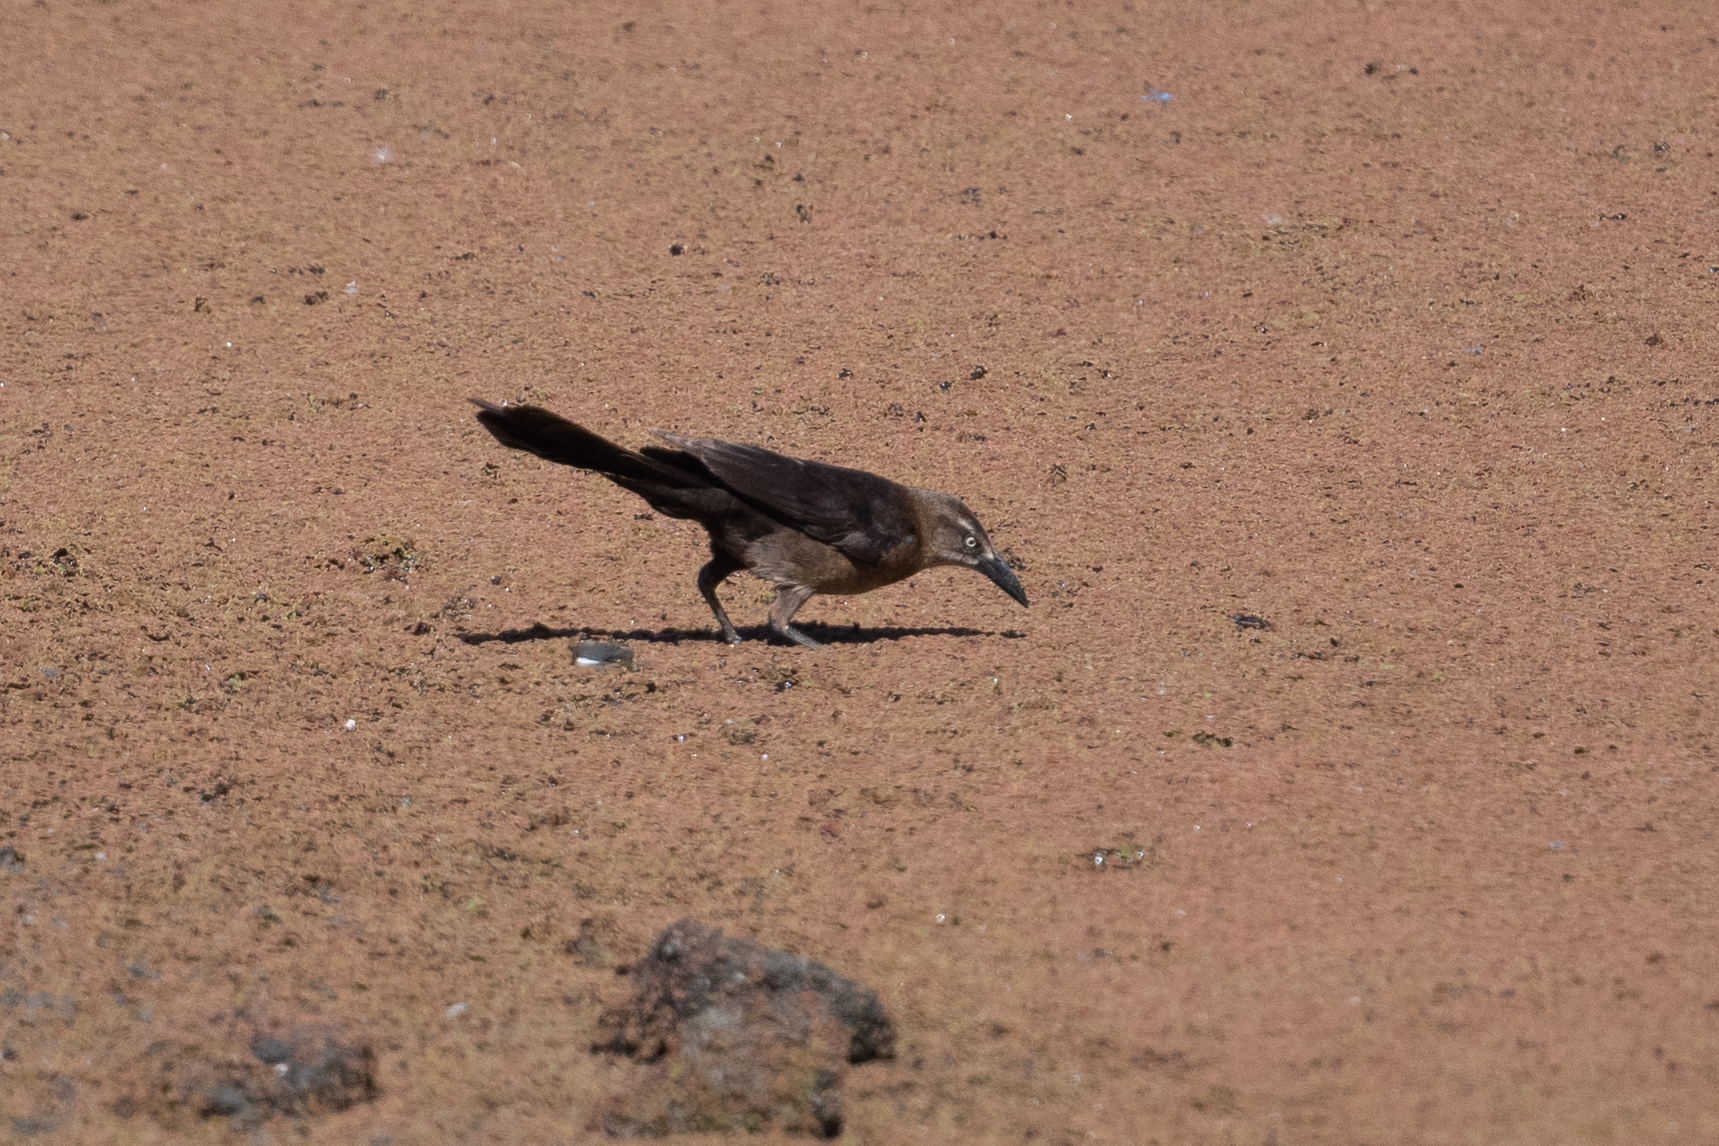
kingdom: Animalia
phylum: Chordata
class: Aves
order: Passeriformes
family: Icteridae
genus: Quiscalus
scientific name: Quiscalus mexicanus
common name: Great-tailed grackle
